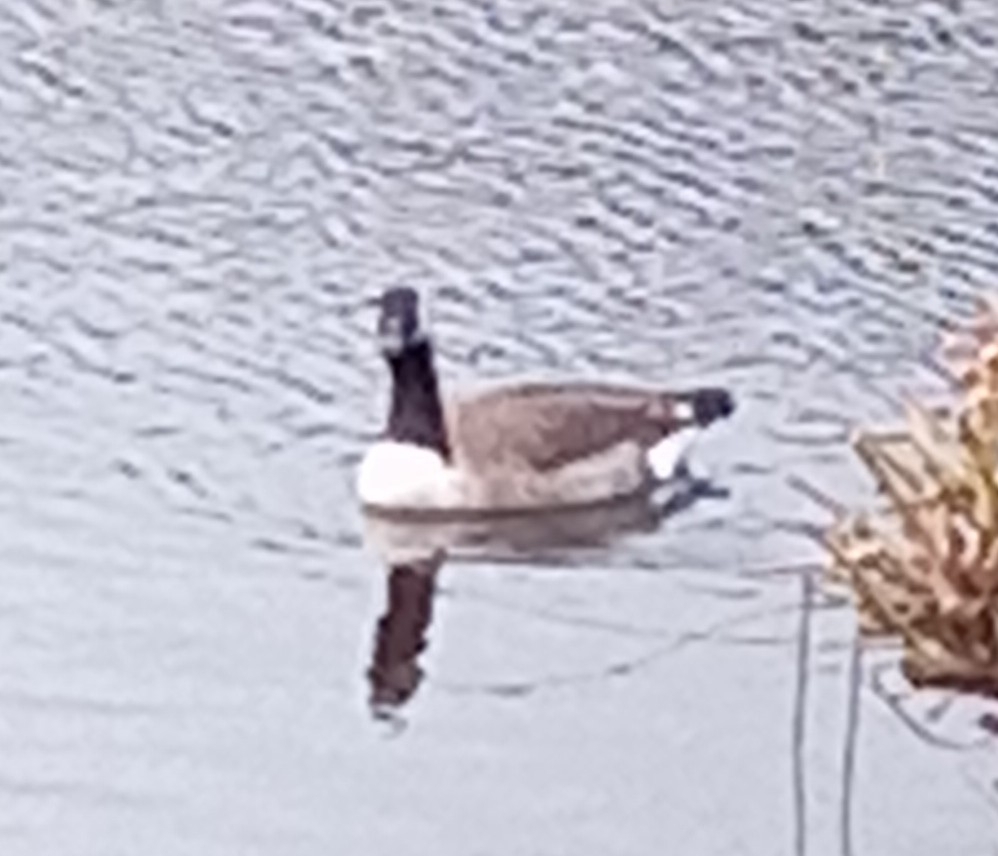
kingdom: Animalia
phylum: Chordata
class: Aves
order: Anseriformes
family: Anatidae
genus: Branta
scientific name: Branta canadensis
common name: Canada goose
